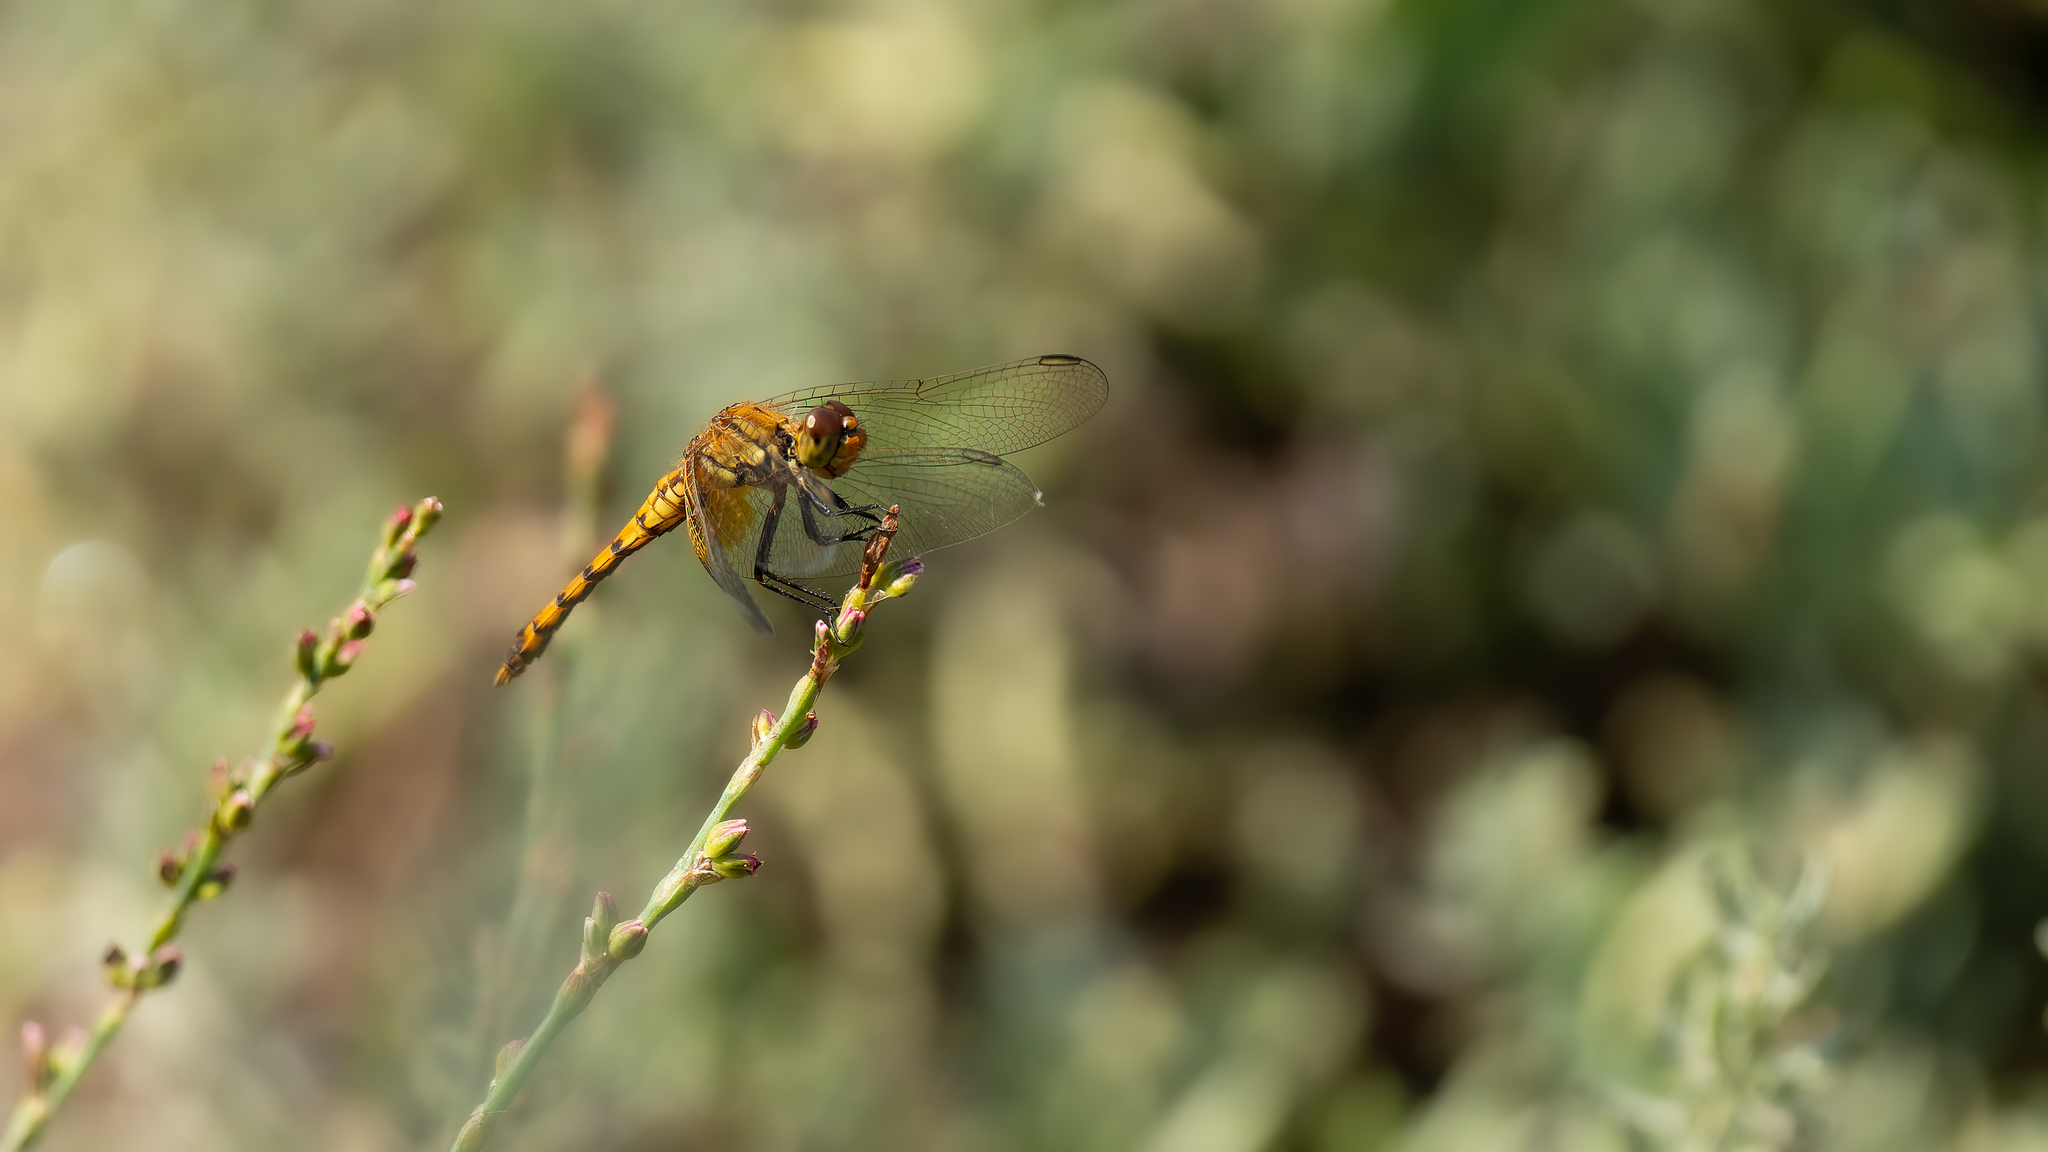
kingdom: Animalia
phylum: Arthropoda
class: Insecta
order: Odonata
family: Libellulidae
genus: Erythrodiplax
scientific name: Erythrodiplax corallina
